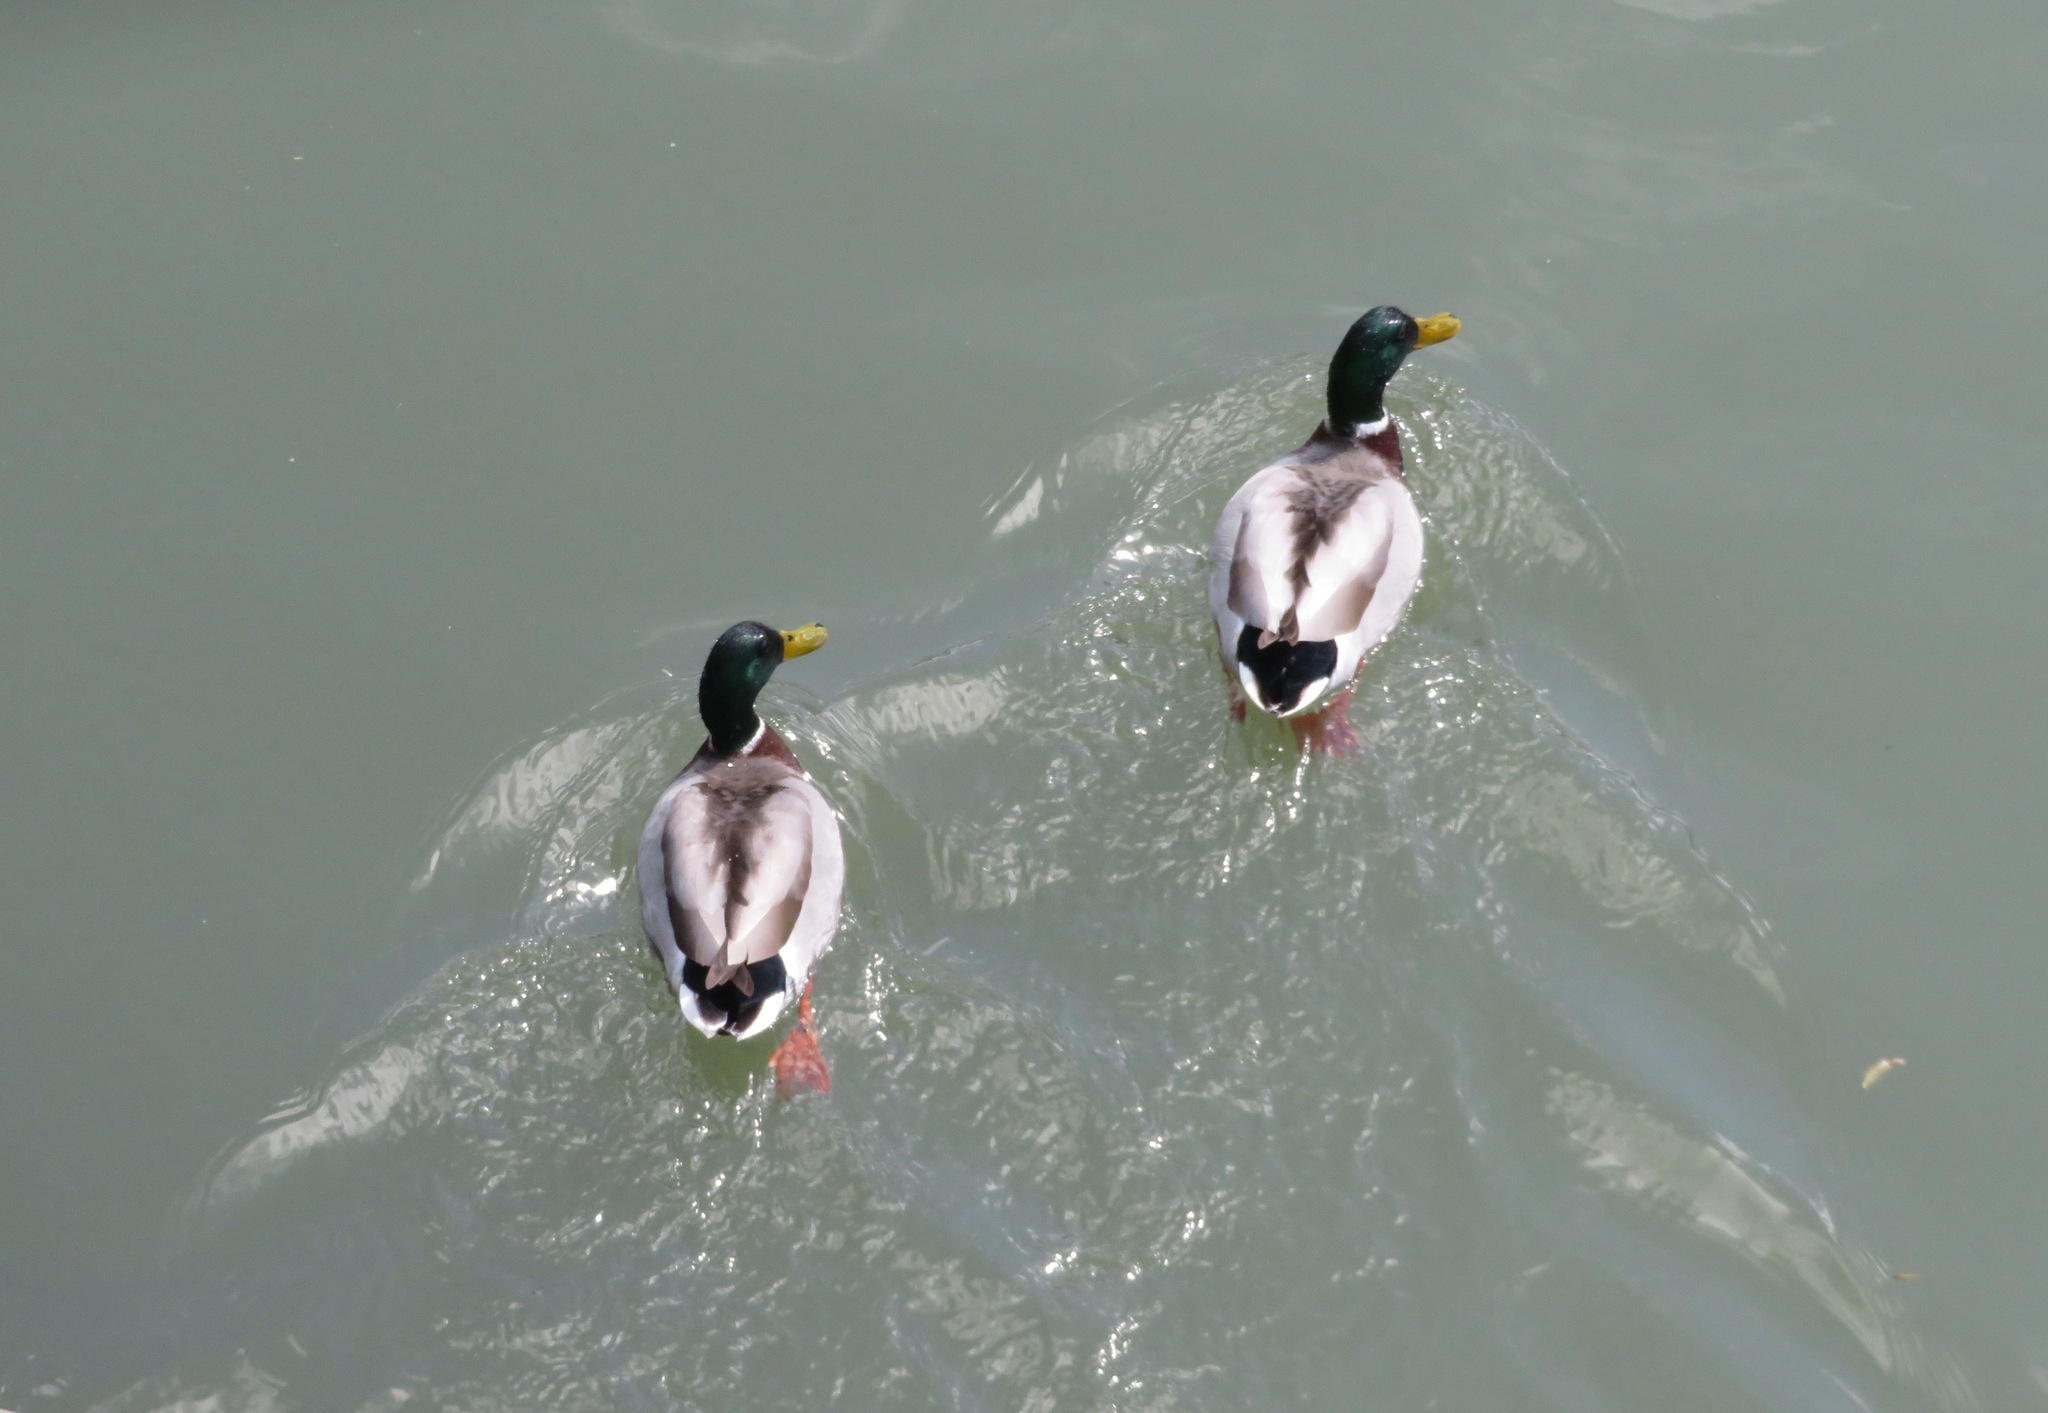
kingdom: Animalia
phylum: Chordata
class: Aves
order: Anseriformes
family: Anatidae
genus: Anas
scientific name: Anas platyrhynchos
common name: Mallard
